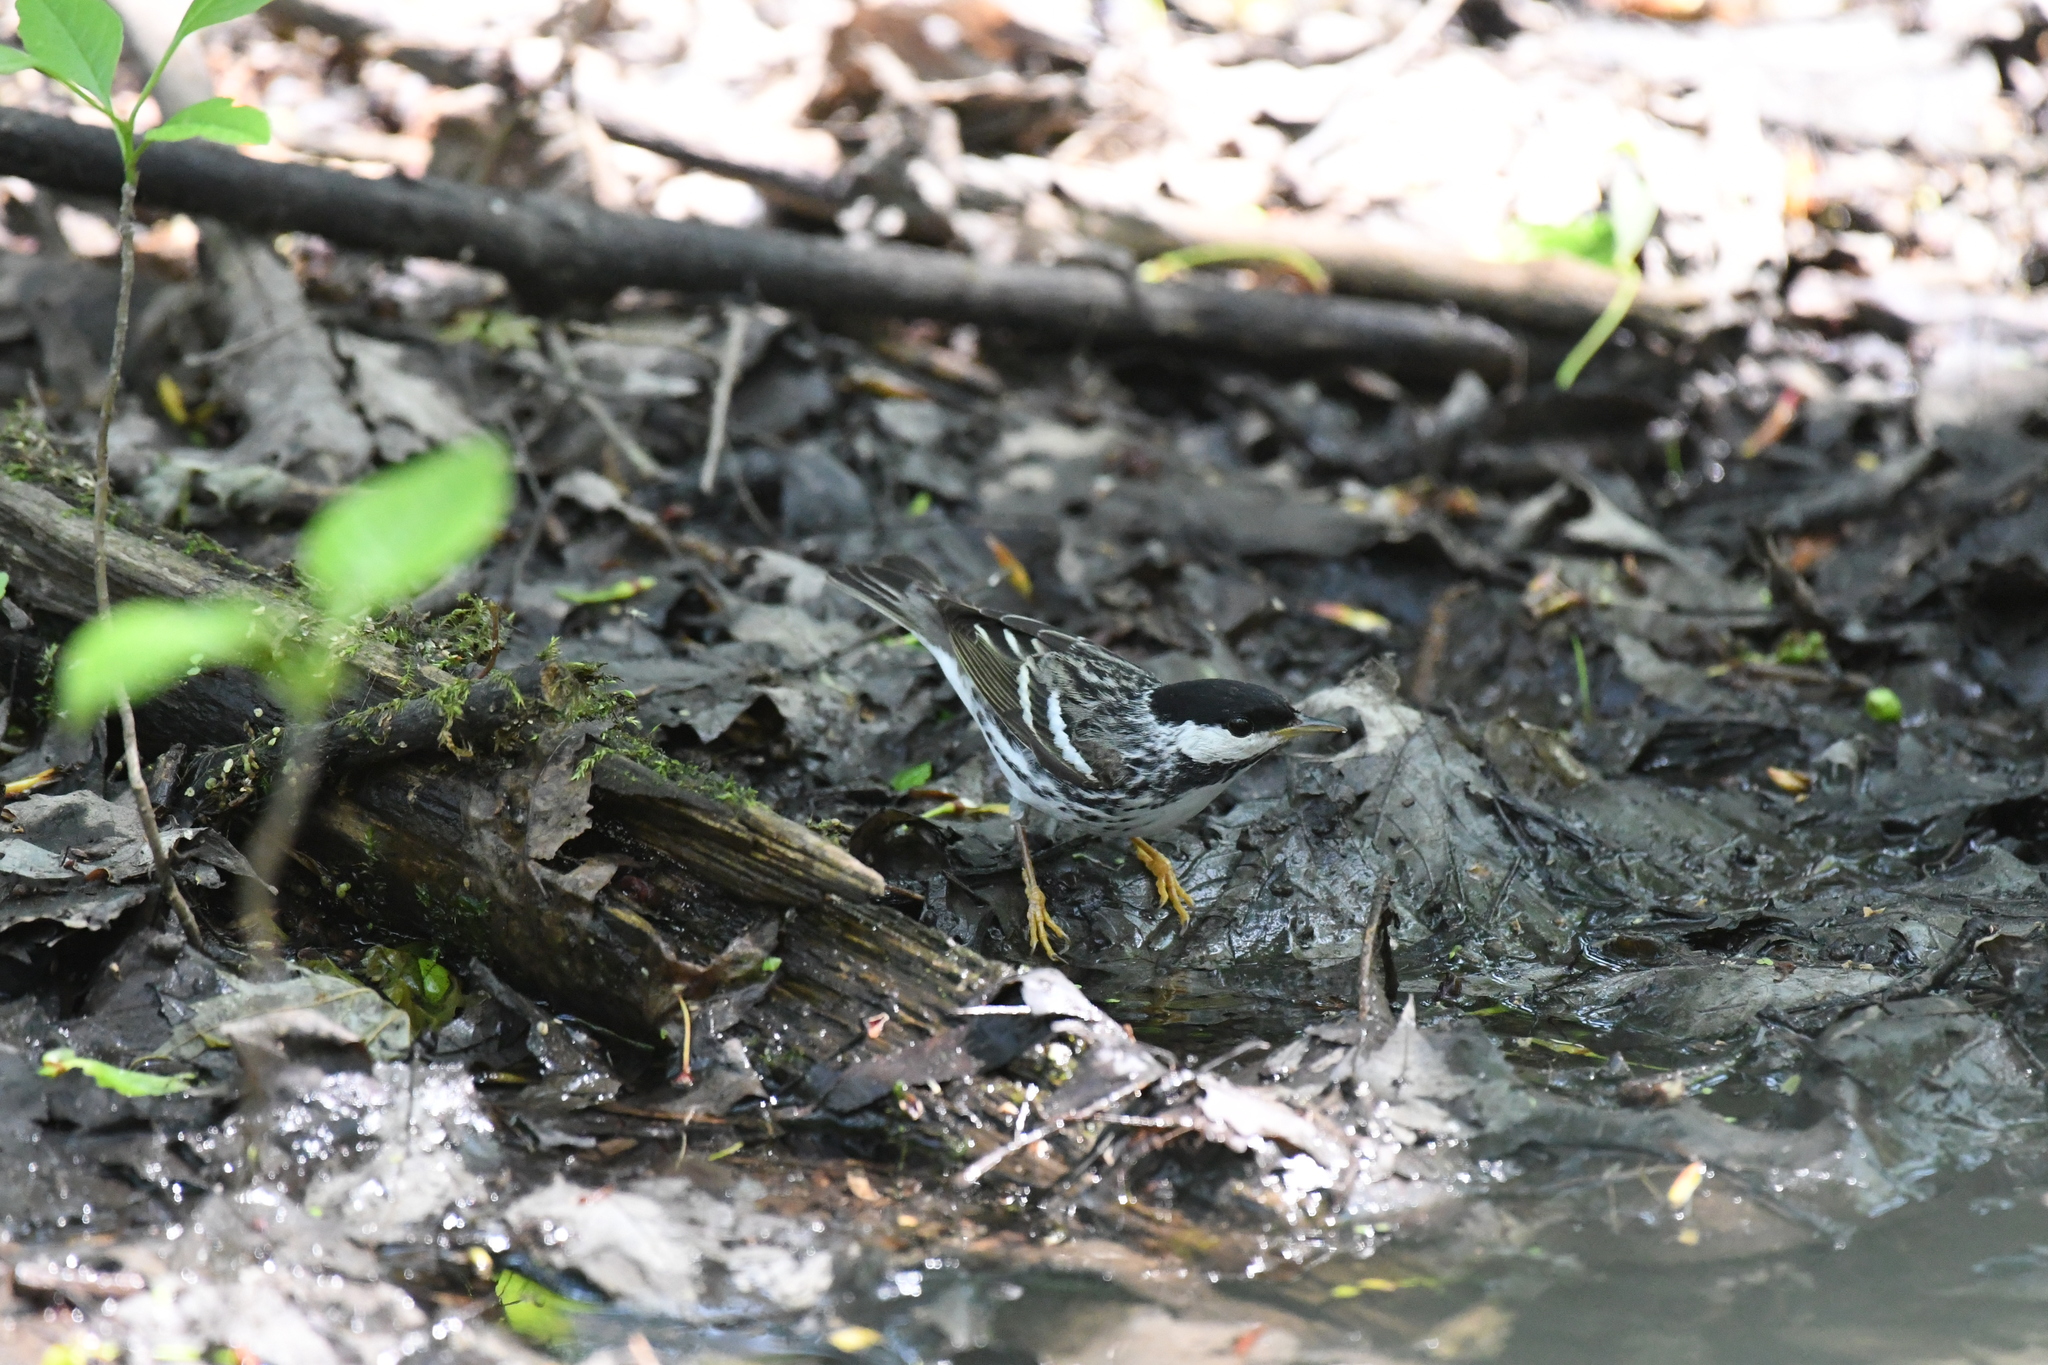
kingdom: Animalia
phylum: Chordata
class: Aves
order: Passeriformes
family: Parulidae
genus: Setophaga
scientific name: Setophaga striata
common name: Blackpoll warbler
